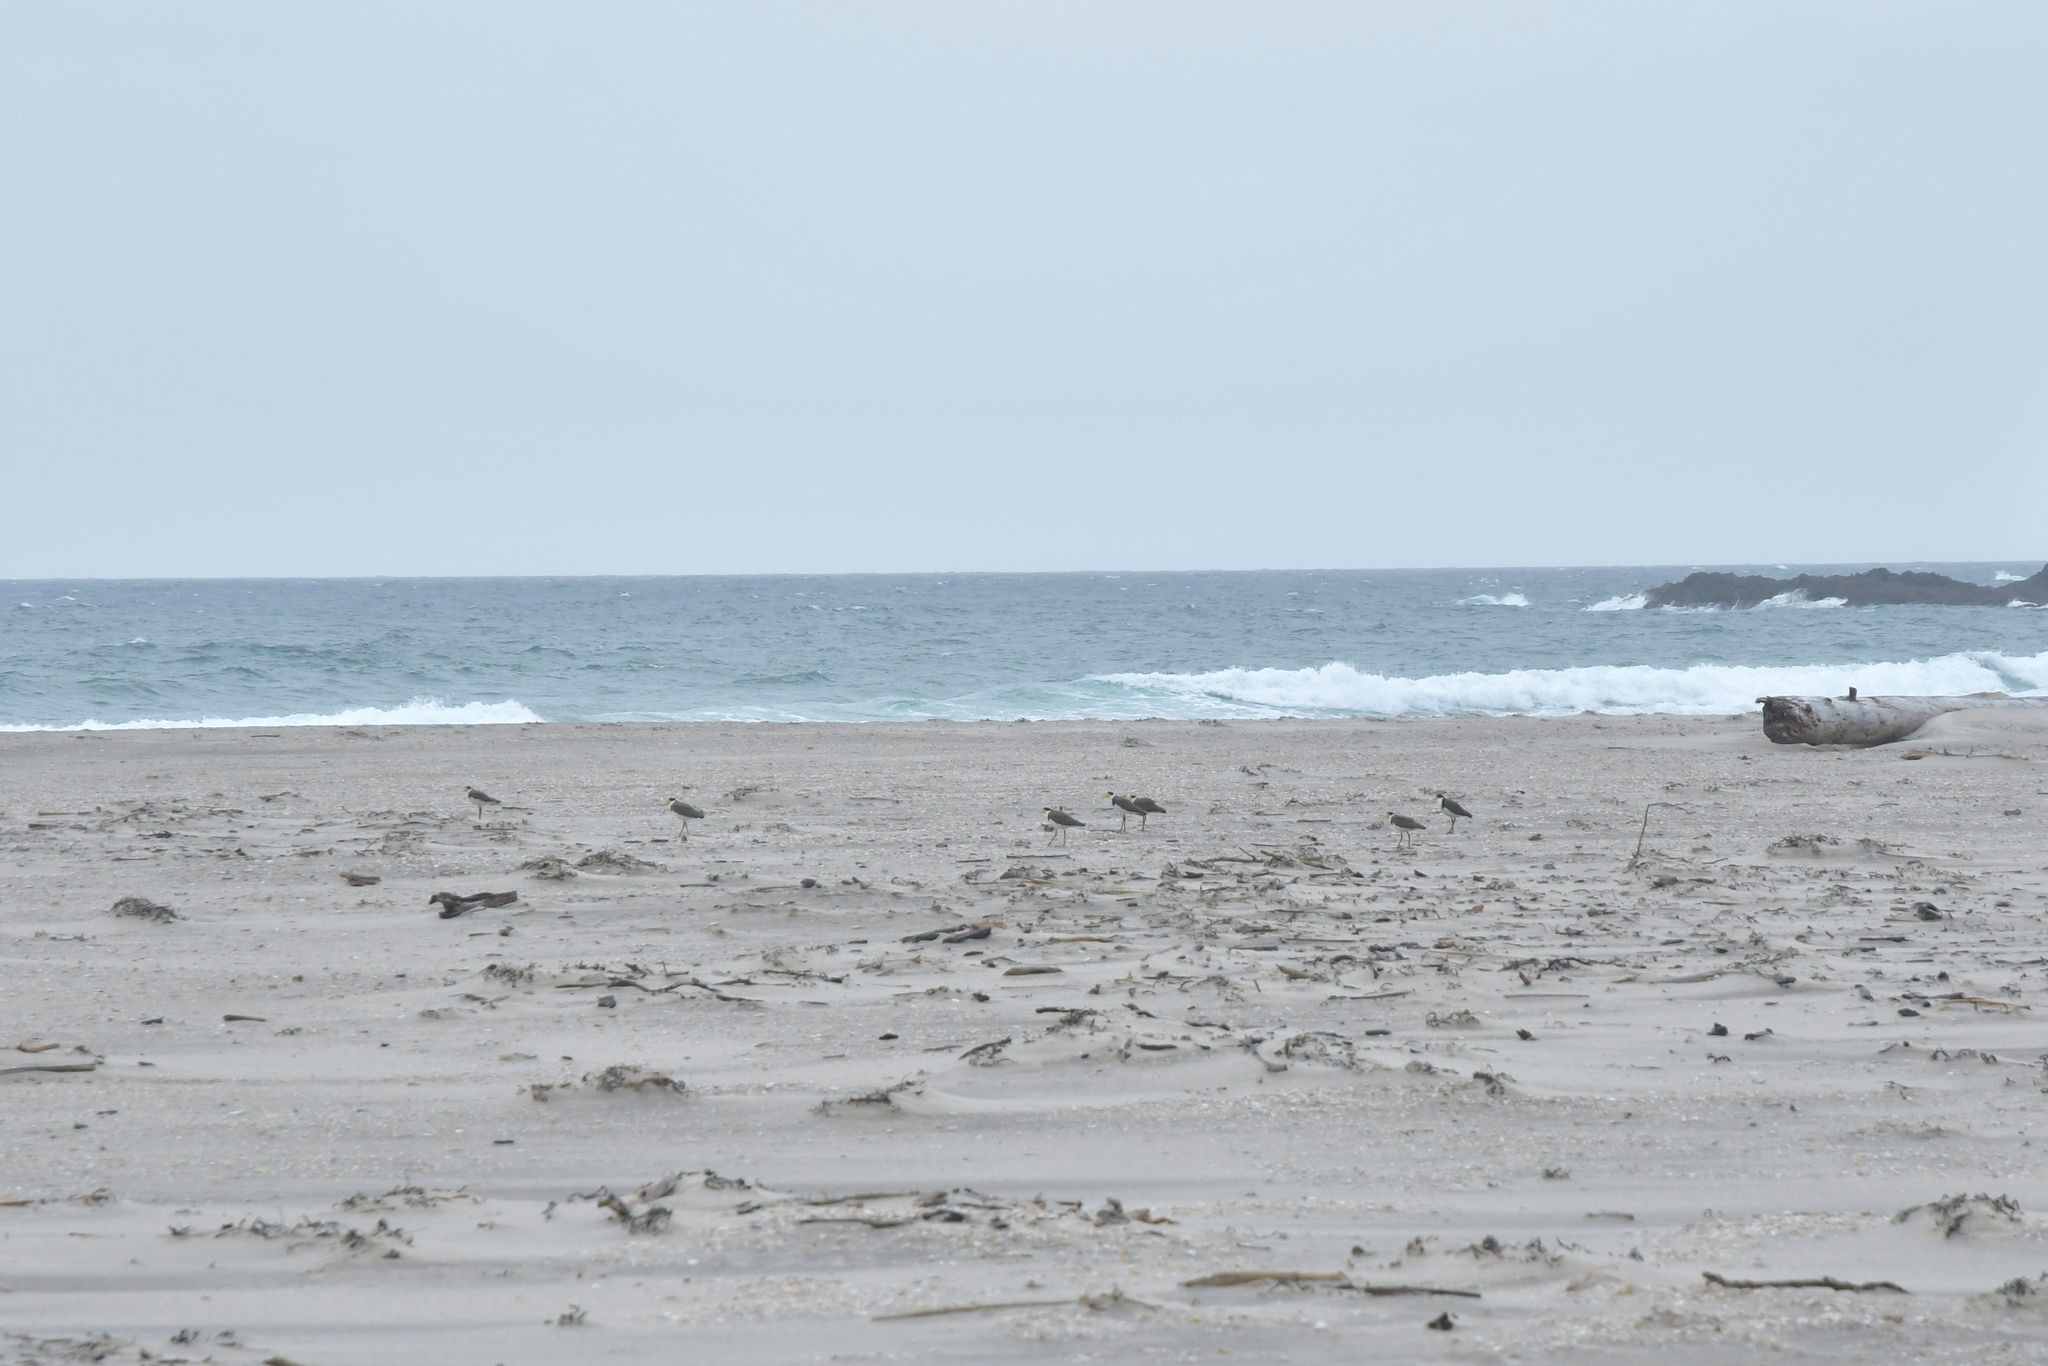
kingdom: Animalia
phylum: Chordata
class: Aves
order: Charadriiformes
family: Charadriidae
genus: Vanellus
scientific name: Vanellus miles
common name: Masked lapwing
